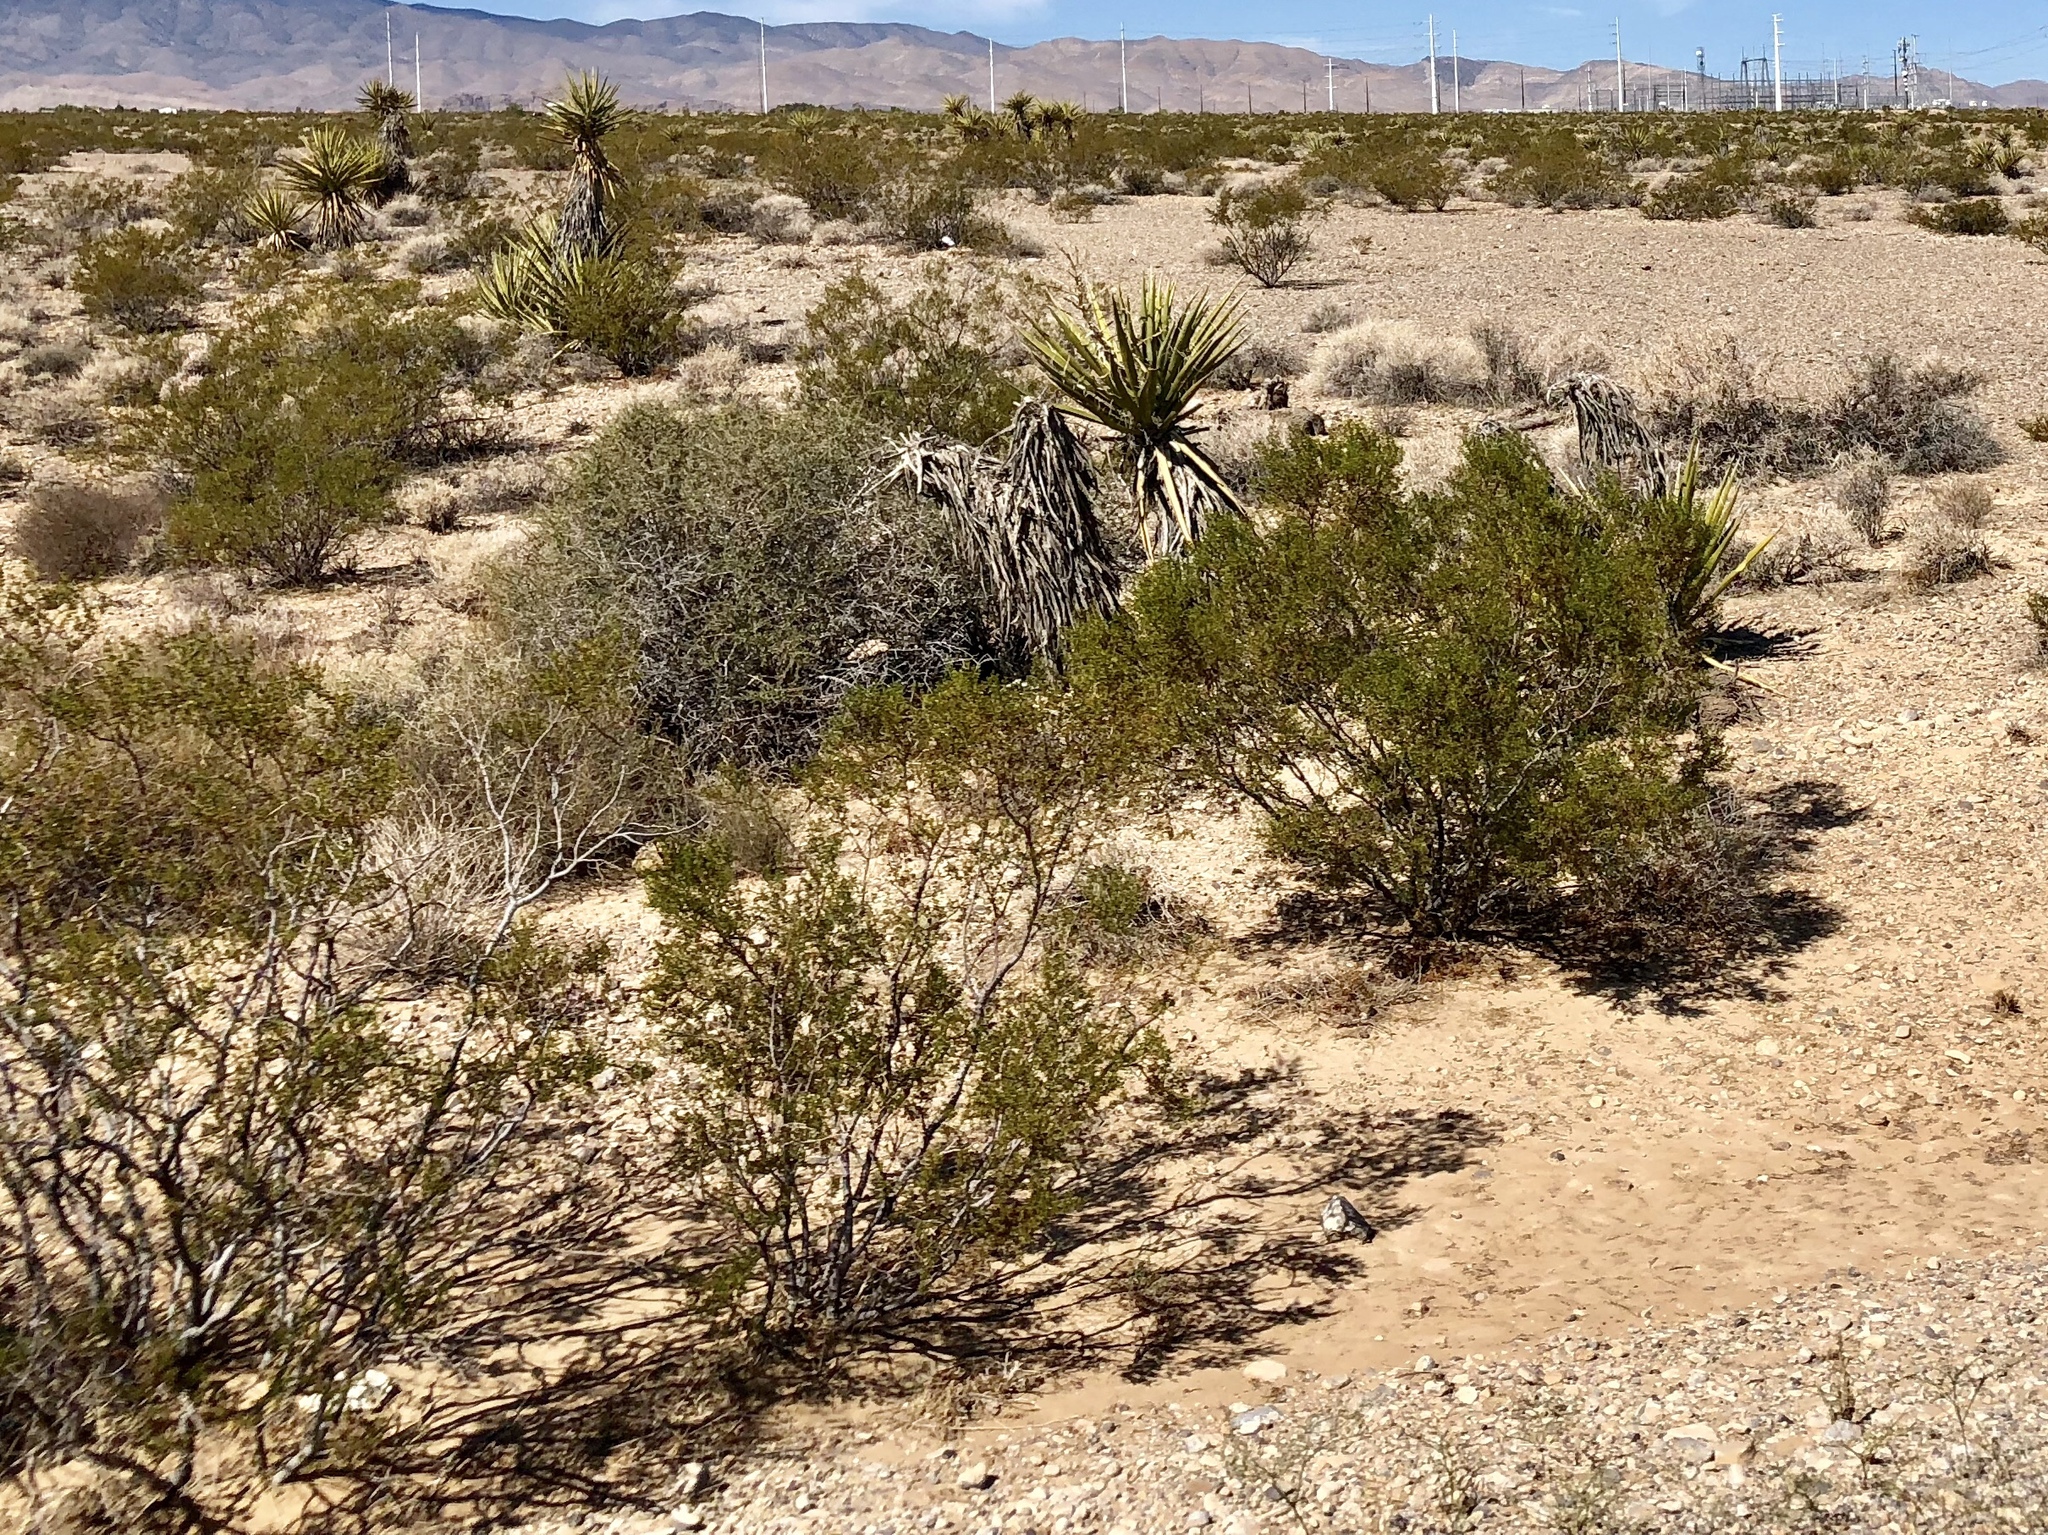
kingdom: Plantae
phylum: Tracheophyta
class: Magnoliopsida
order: Zygophyllales
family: Zygophyllaceae
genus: Larrea
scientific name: Larrea tridentata
